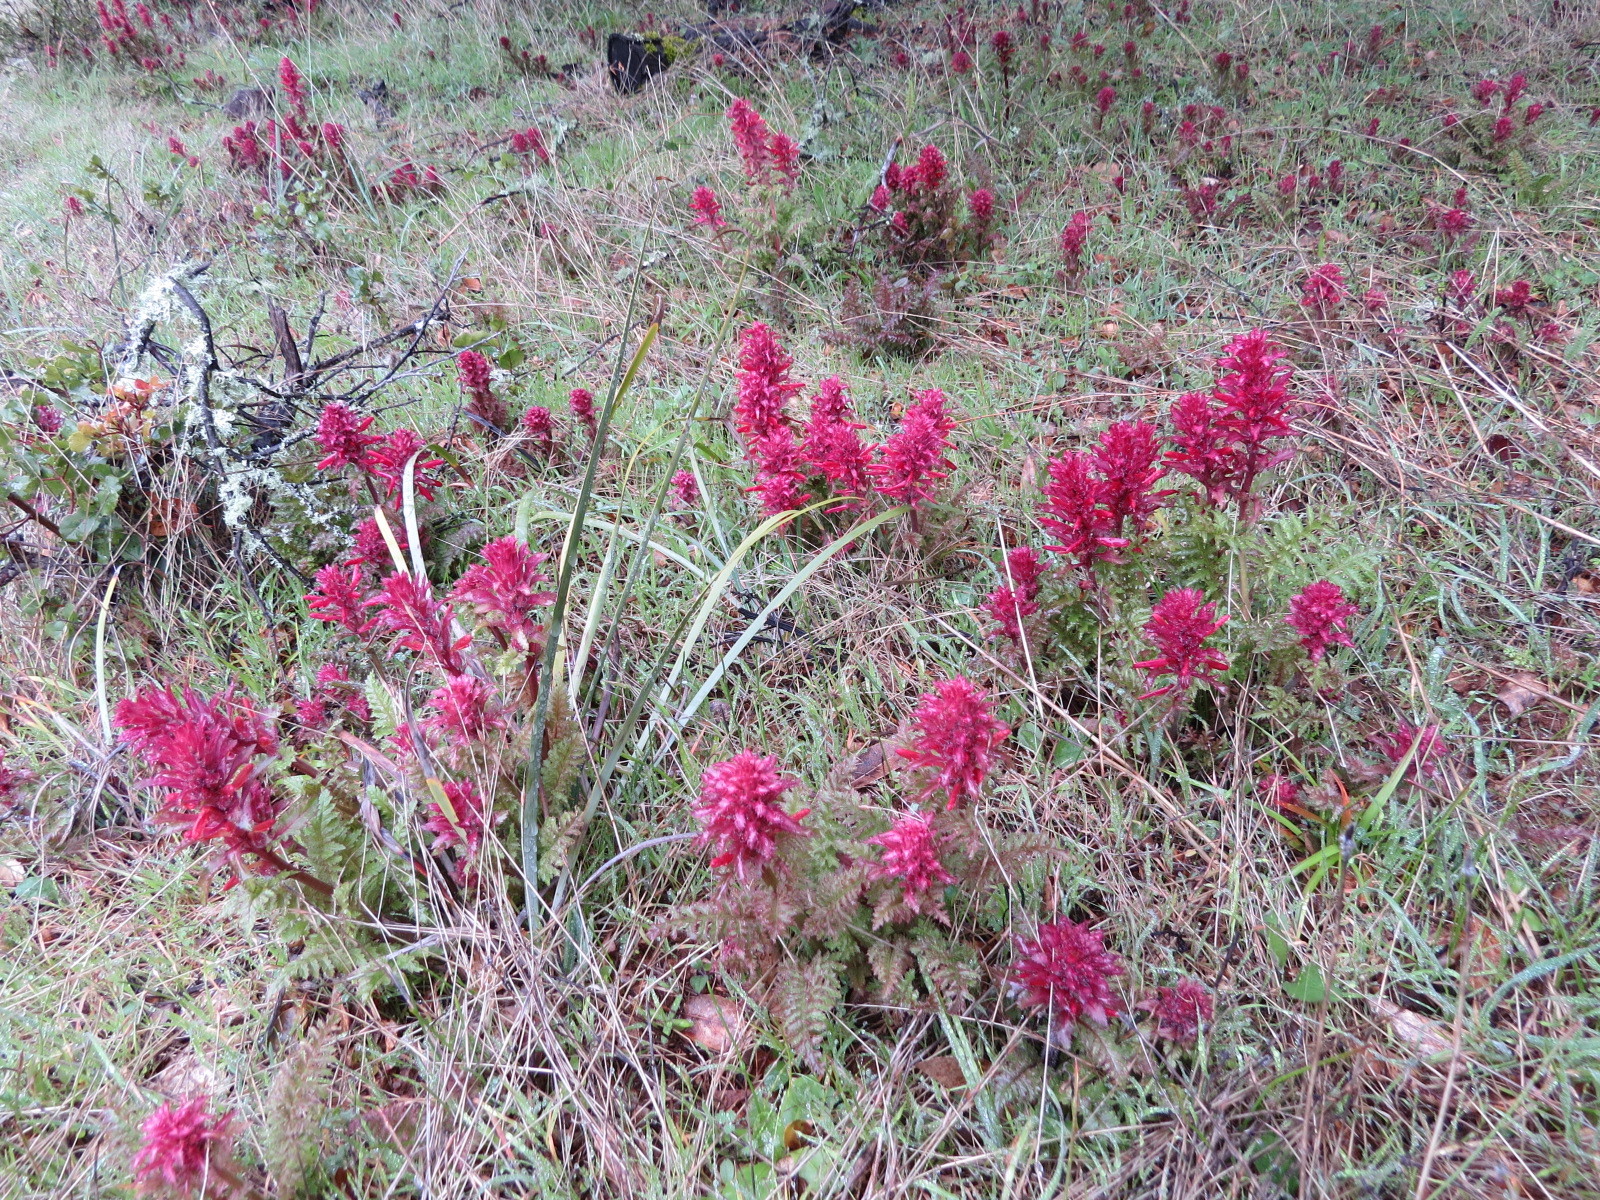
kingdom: Plantae
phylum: Tracheophyta
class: Magnoliopsida
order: Lamiales
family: Orobanchaceae
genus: Pedicularis
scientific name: Pedicularis densiflora
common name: Indian warrior
